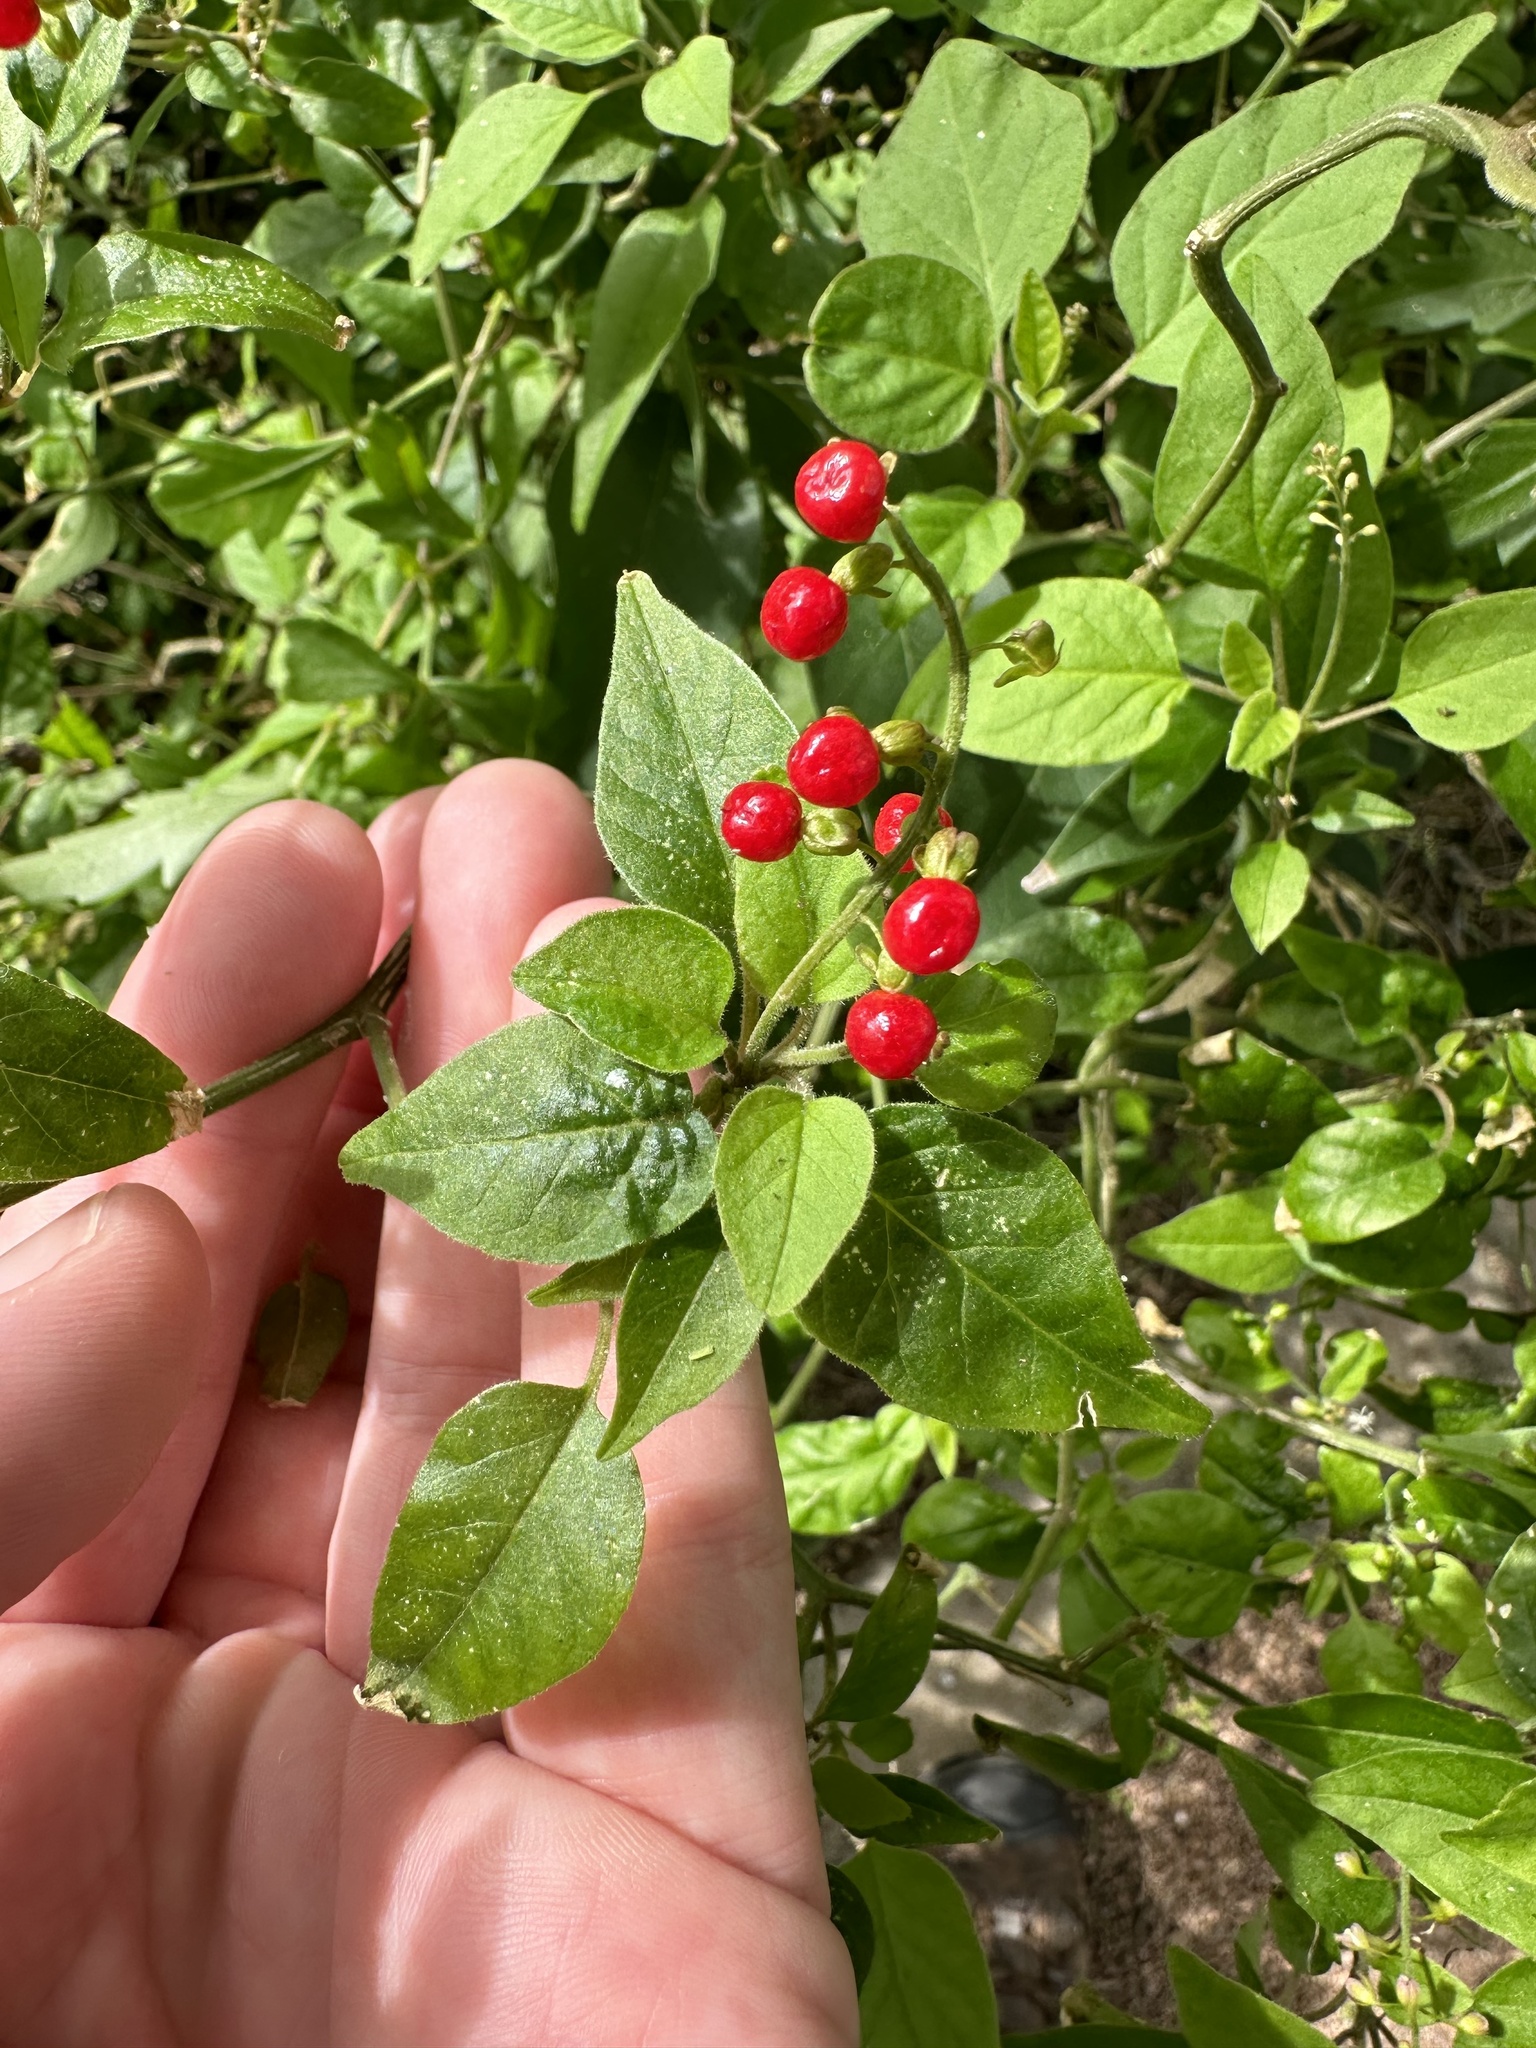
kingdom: Plantae
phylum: Tracheophyta
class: Magnoliopsida
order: Caryophyllales
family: Phytolaccaceae
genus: Rivina
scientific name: Rivina humilis
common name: Rougeplant
